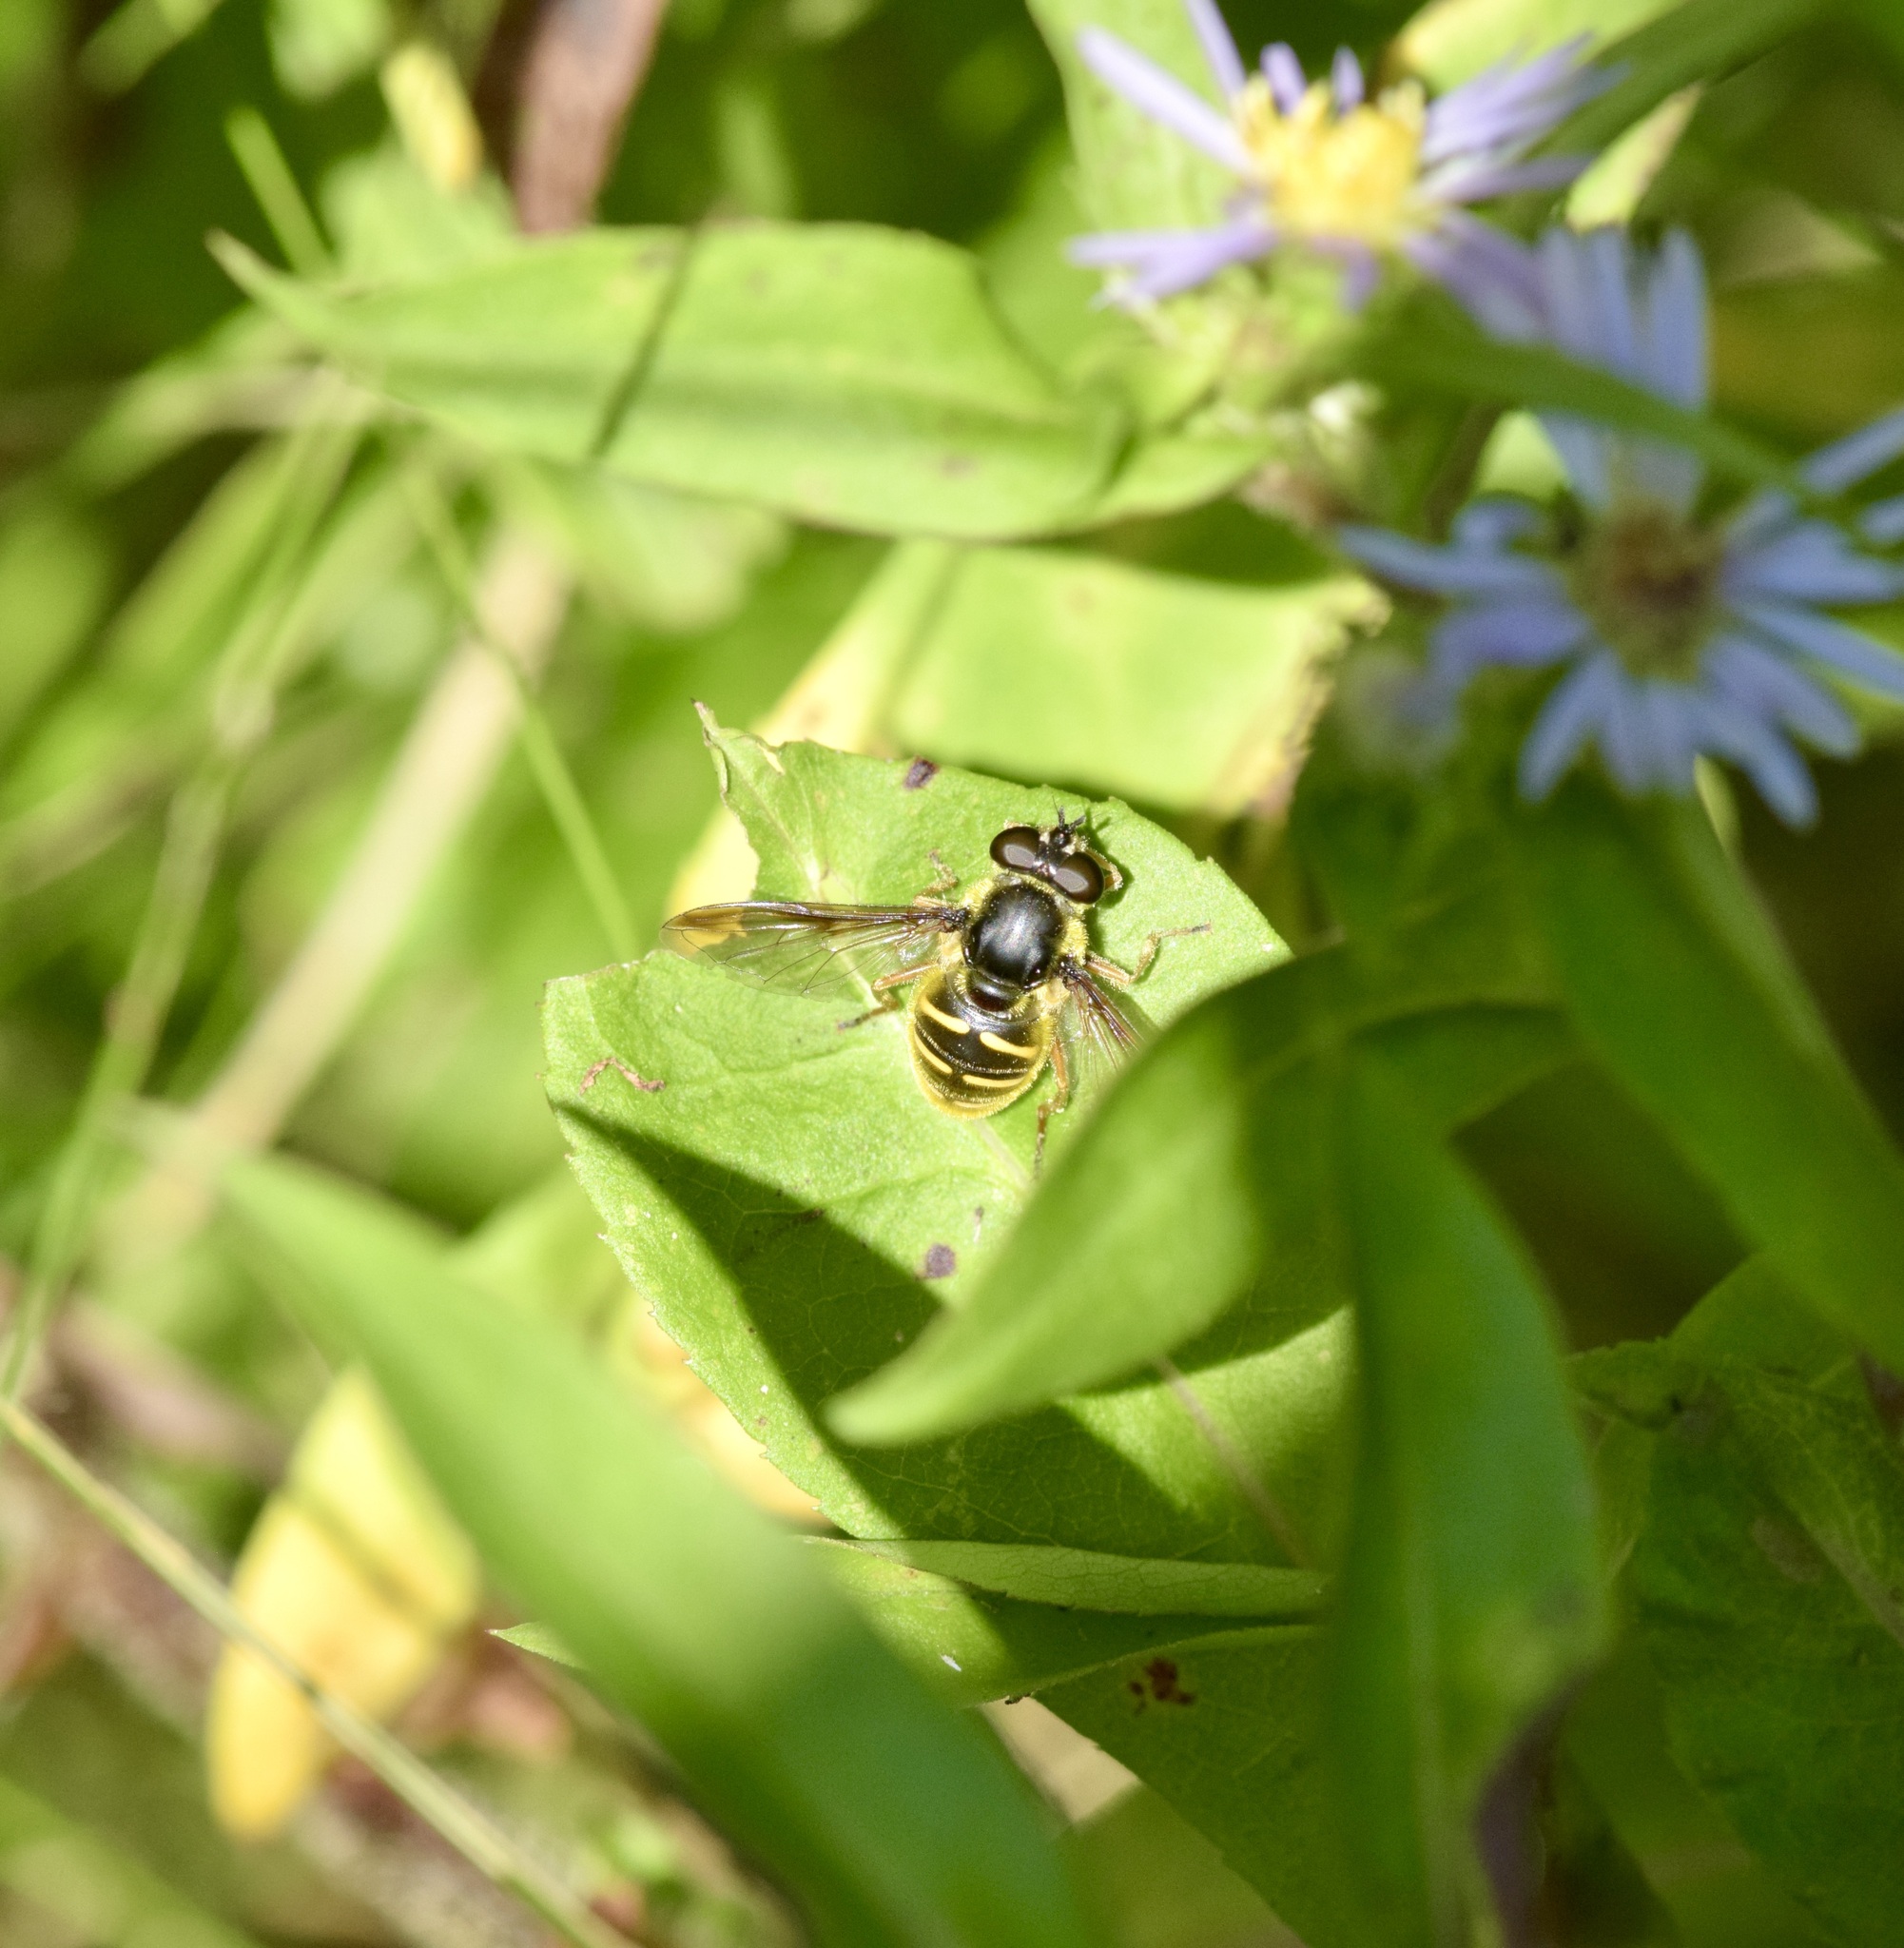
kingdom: Animalia
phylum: Arthropoda
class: Insecta
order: Diptera
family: Syrphidae
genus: Sericomyia
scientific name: Sericomyia chrysotoxoides
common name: Oblique-banded pond fly
